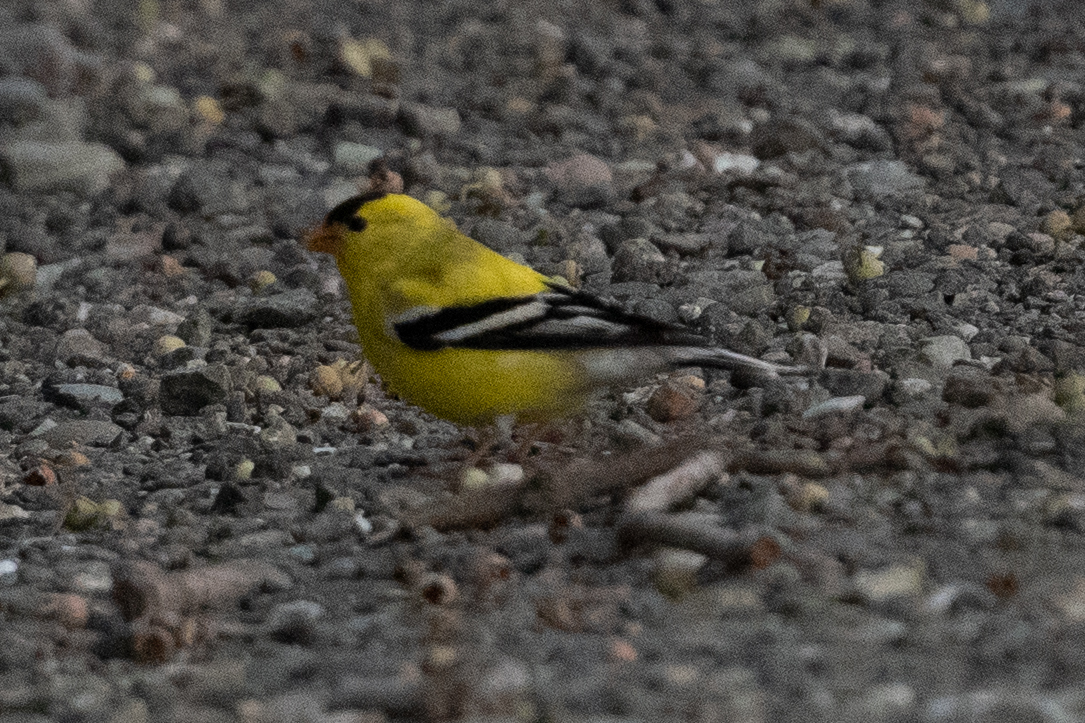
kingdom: Animalia
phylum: Chordata
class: Aves
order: Passeriformes
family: Fringillidae
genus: Spinus
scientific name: Spinus tristis
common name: American goldfinch
